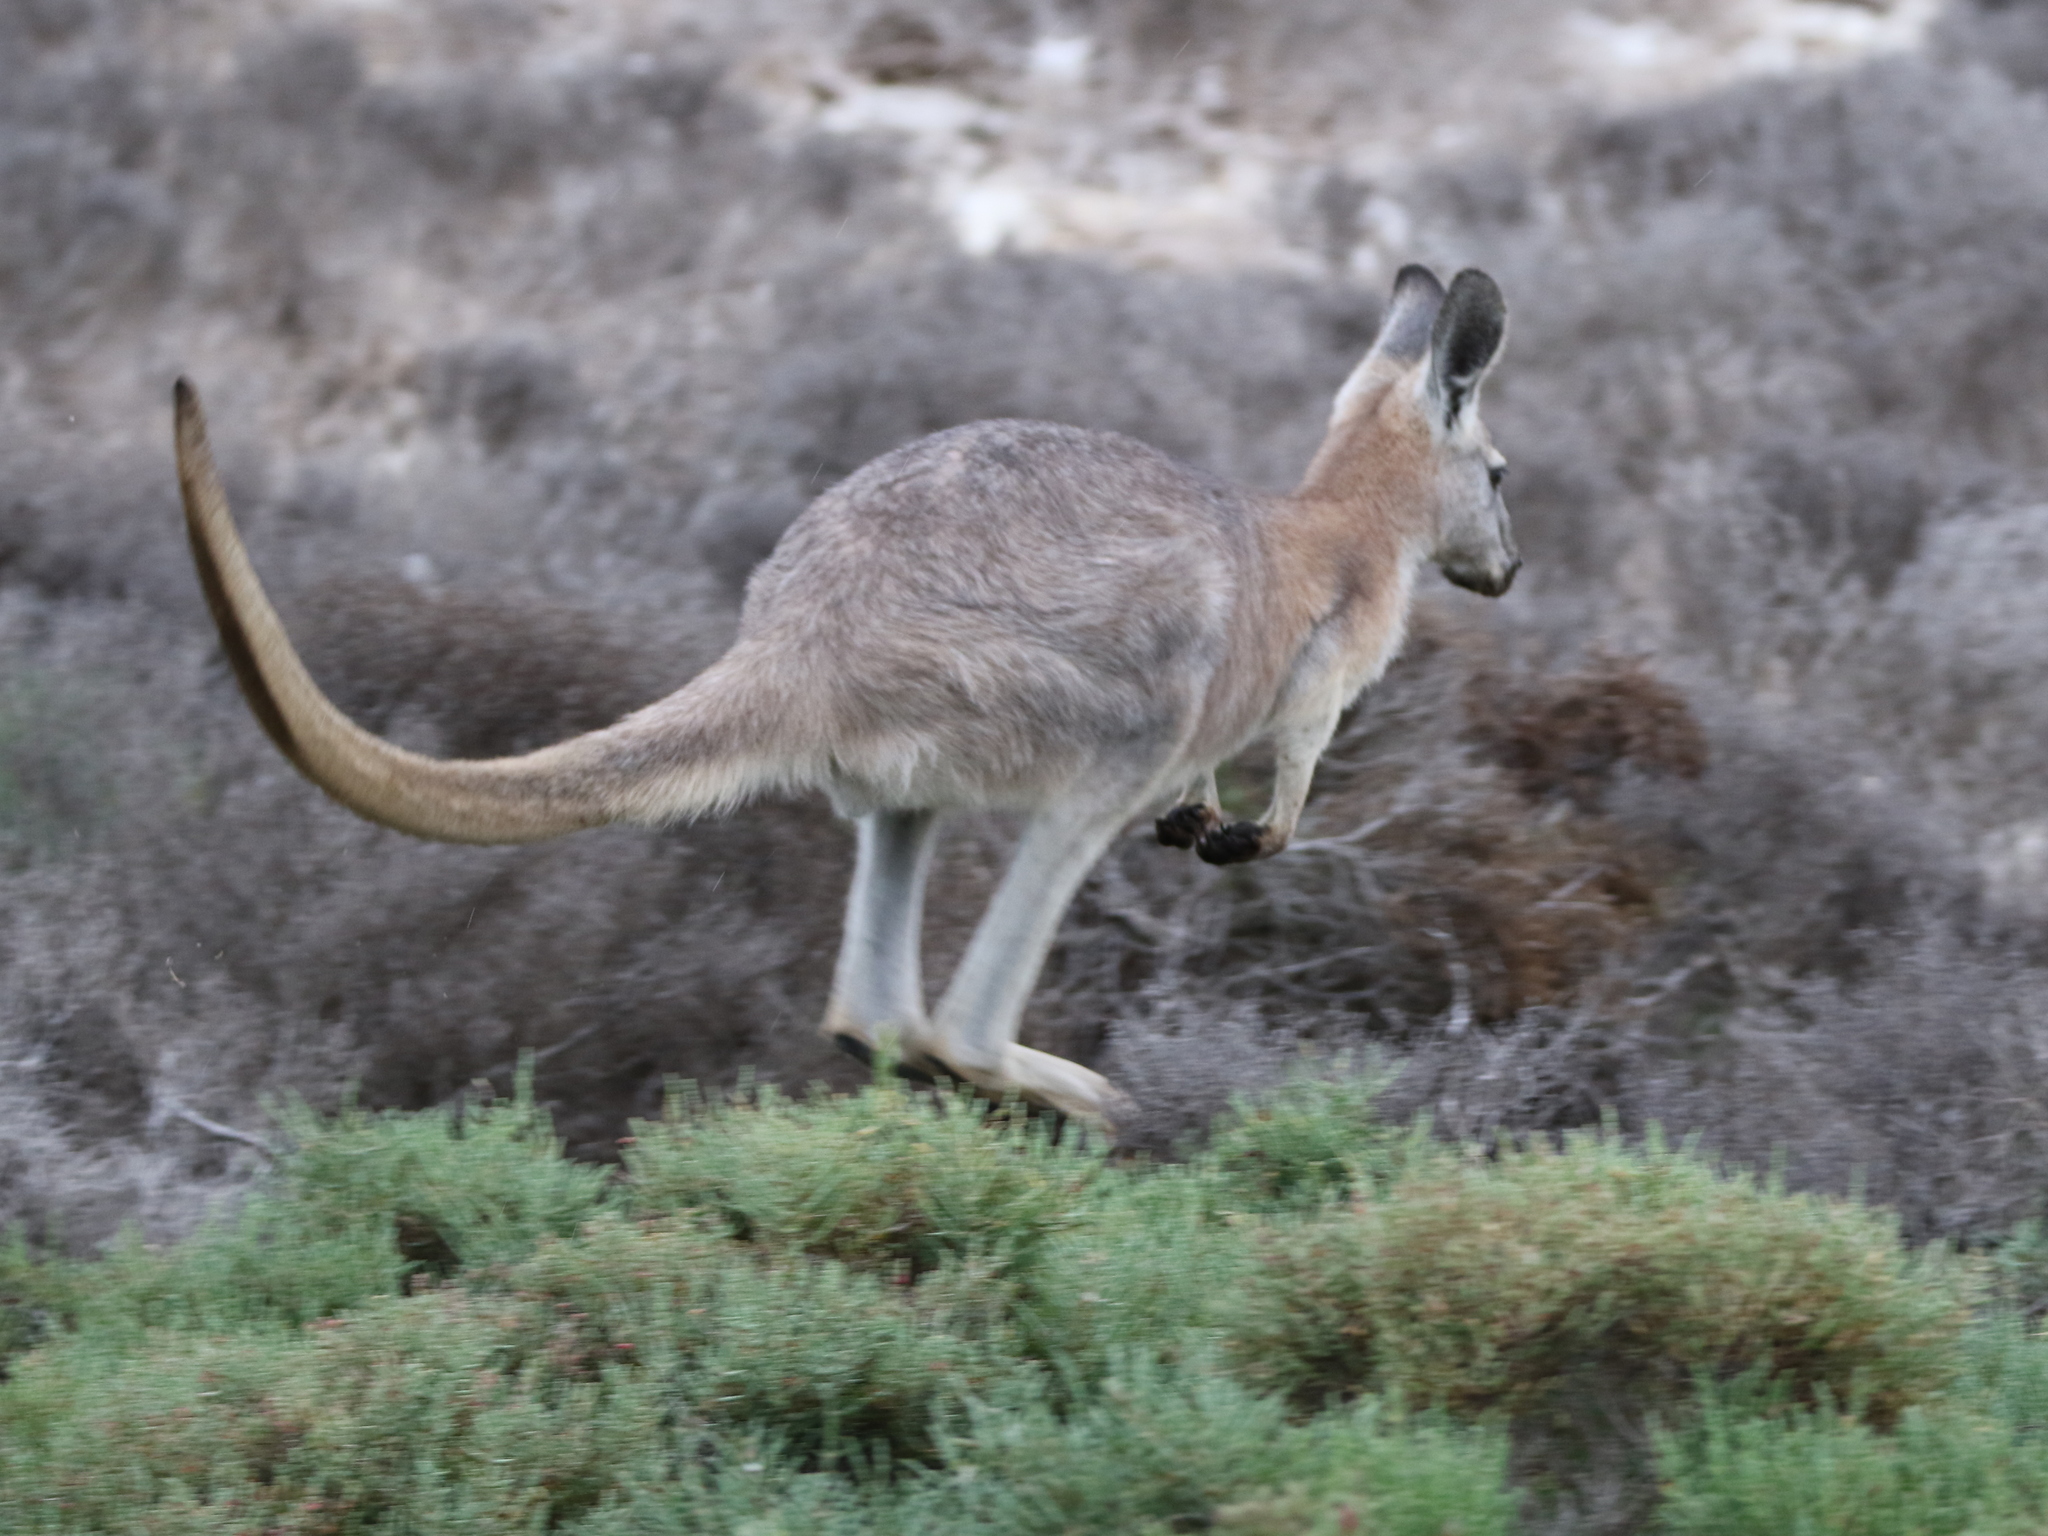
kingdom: Animalia
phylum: Chordata
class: Mammalia
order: Diprotodontia
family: Macropodidae
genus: Macropus
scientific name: Macropus robustus
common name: Eastern wallaroo
